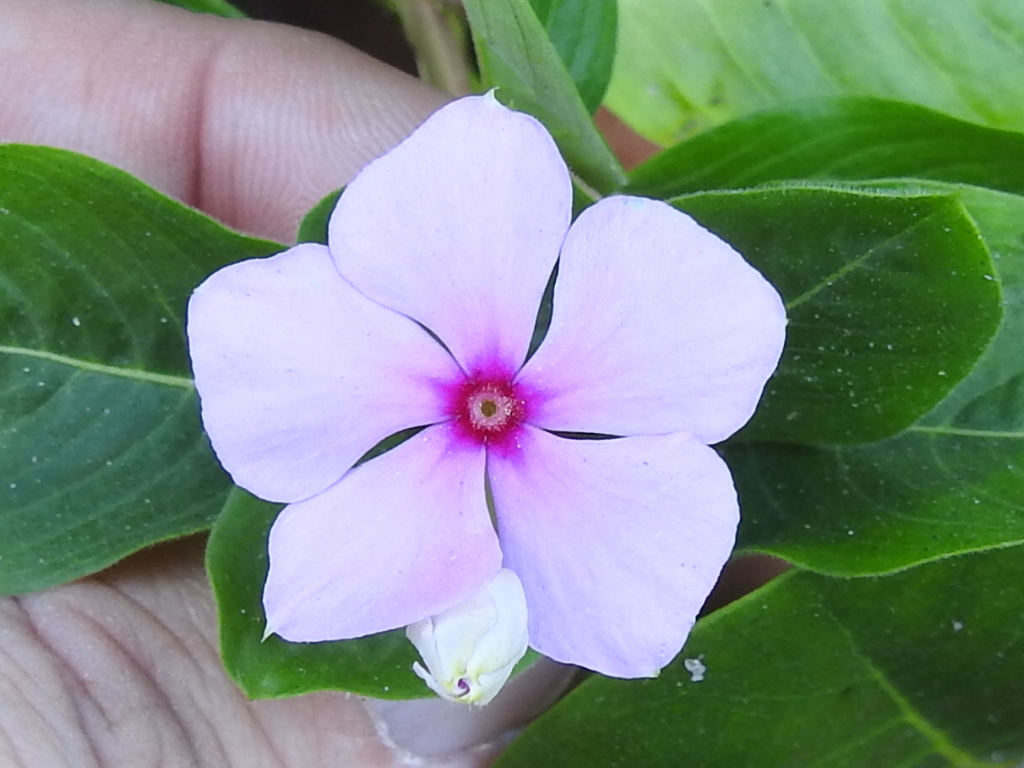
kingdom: Plantae
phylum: Tracheophyta
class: Magnoliopsida
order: Gentianales
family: Apocynaceae
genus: Catharanthus
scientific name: Catharanthus roseus
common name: Madagascar periwinkle
